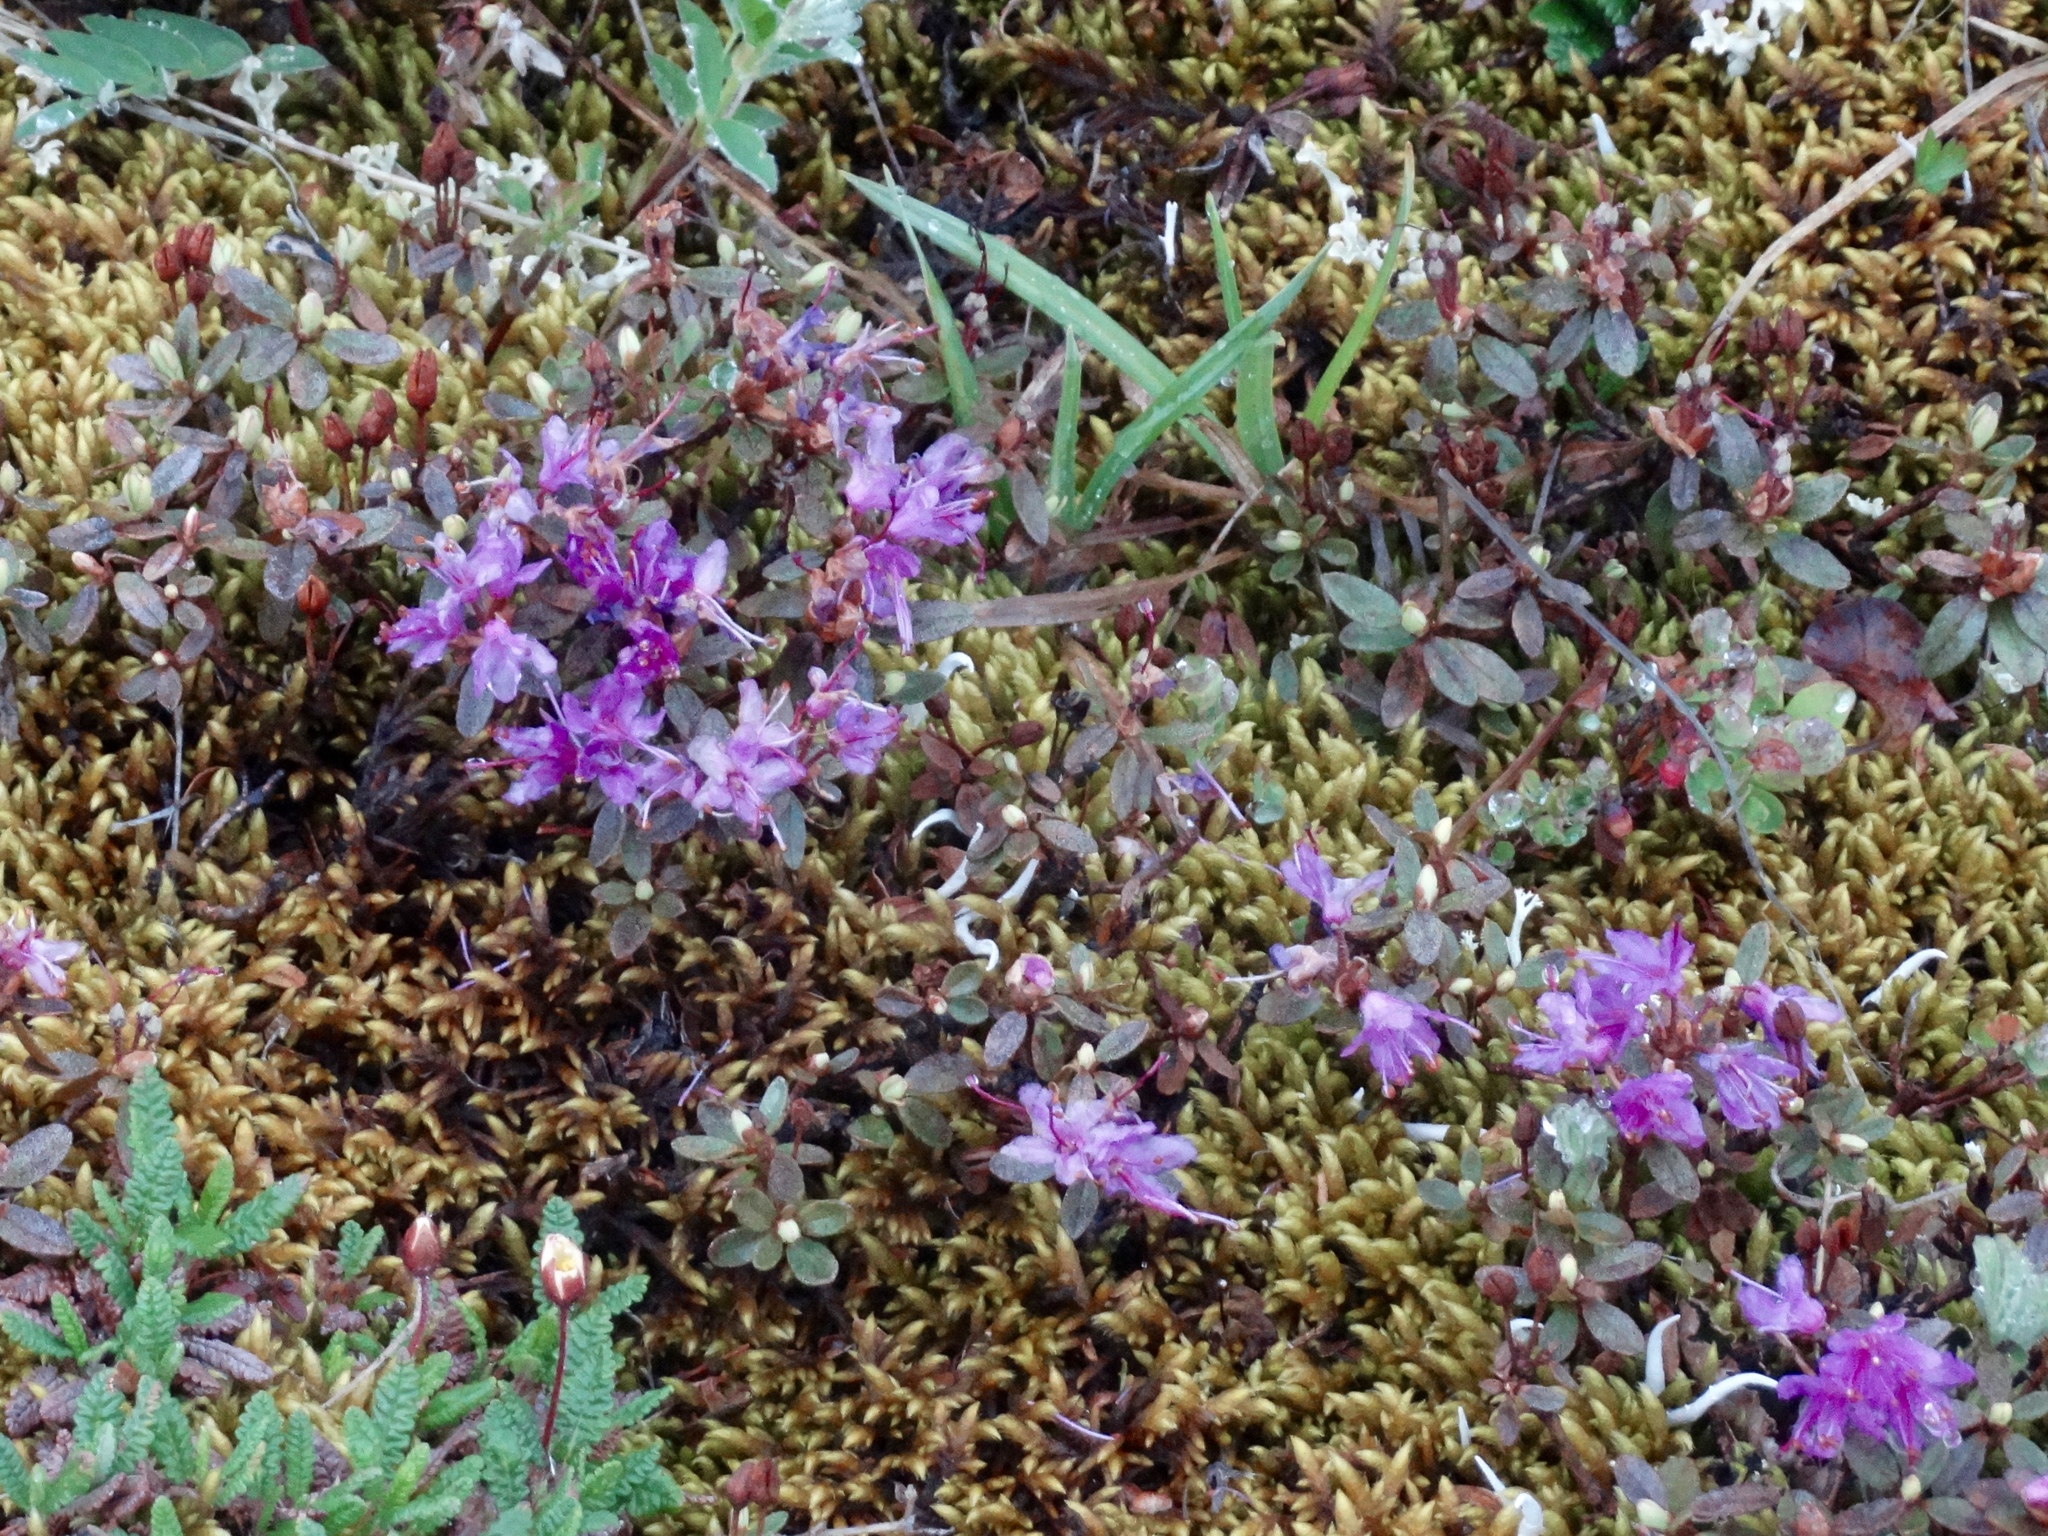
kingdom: Plantae
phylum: Tracheophyta
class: Magnoliopsida
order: Ericales
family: Ericaceae
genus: Rhododendron
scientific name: Rhododendron lapponicum
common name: Lapland rhododendron
